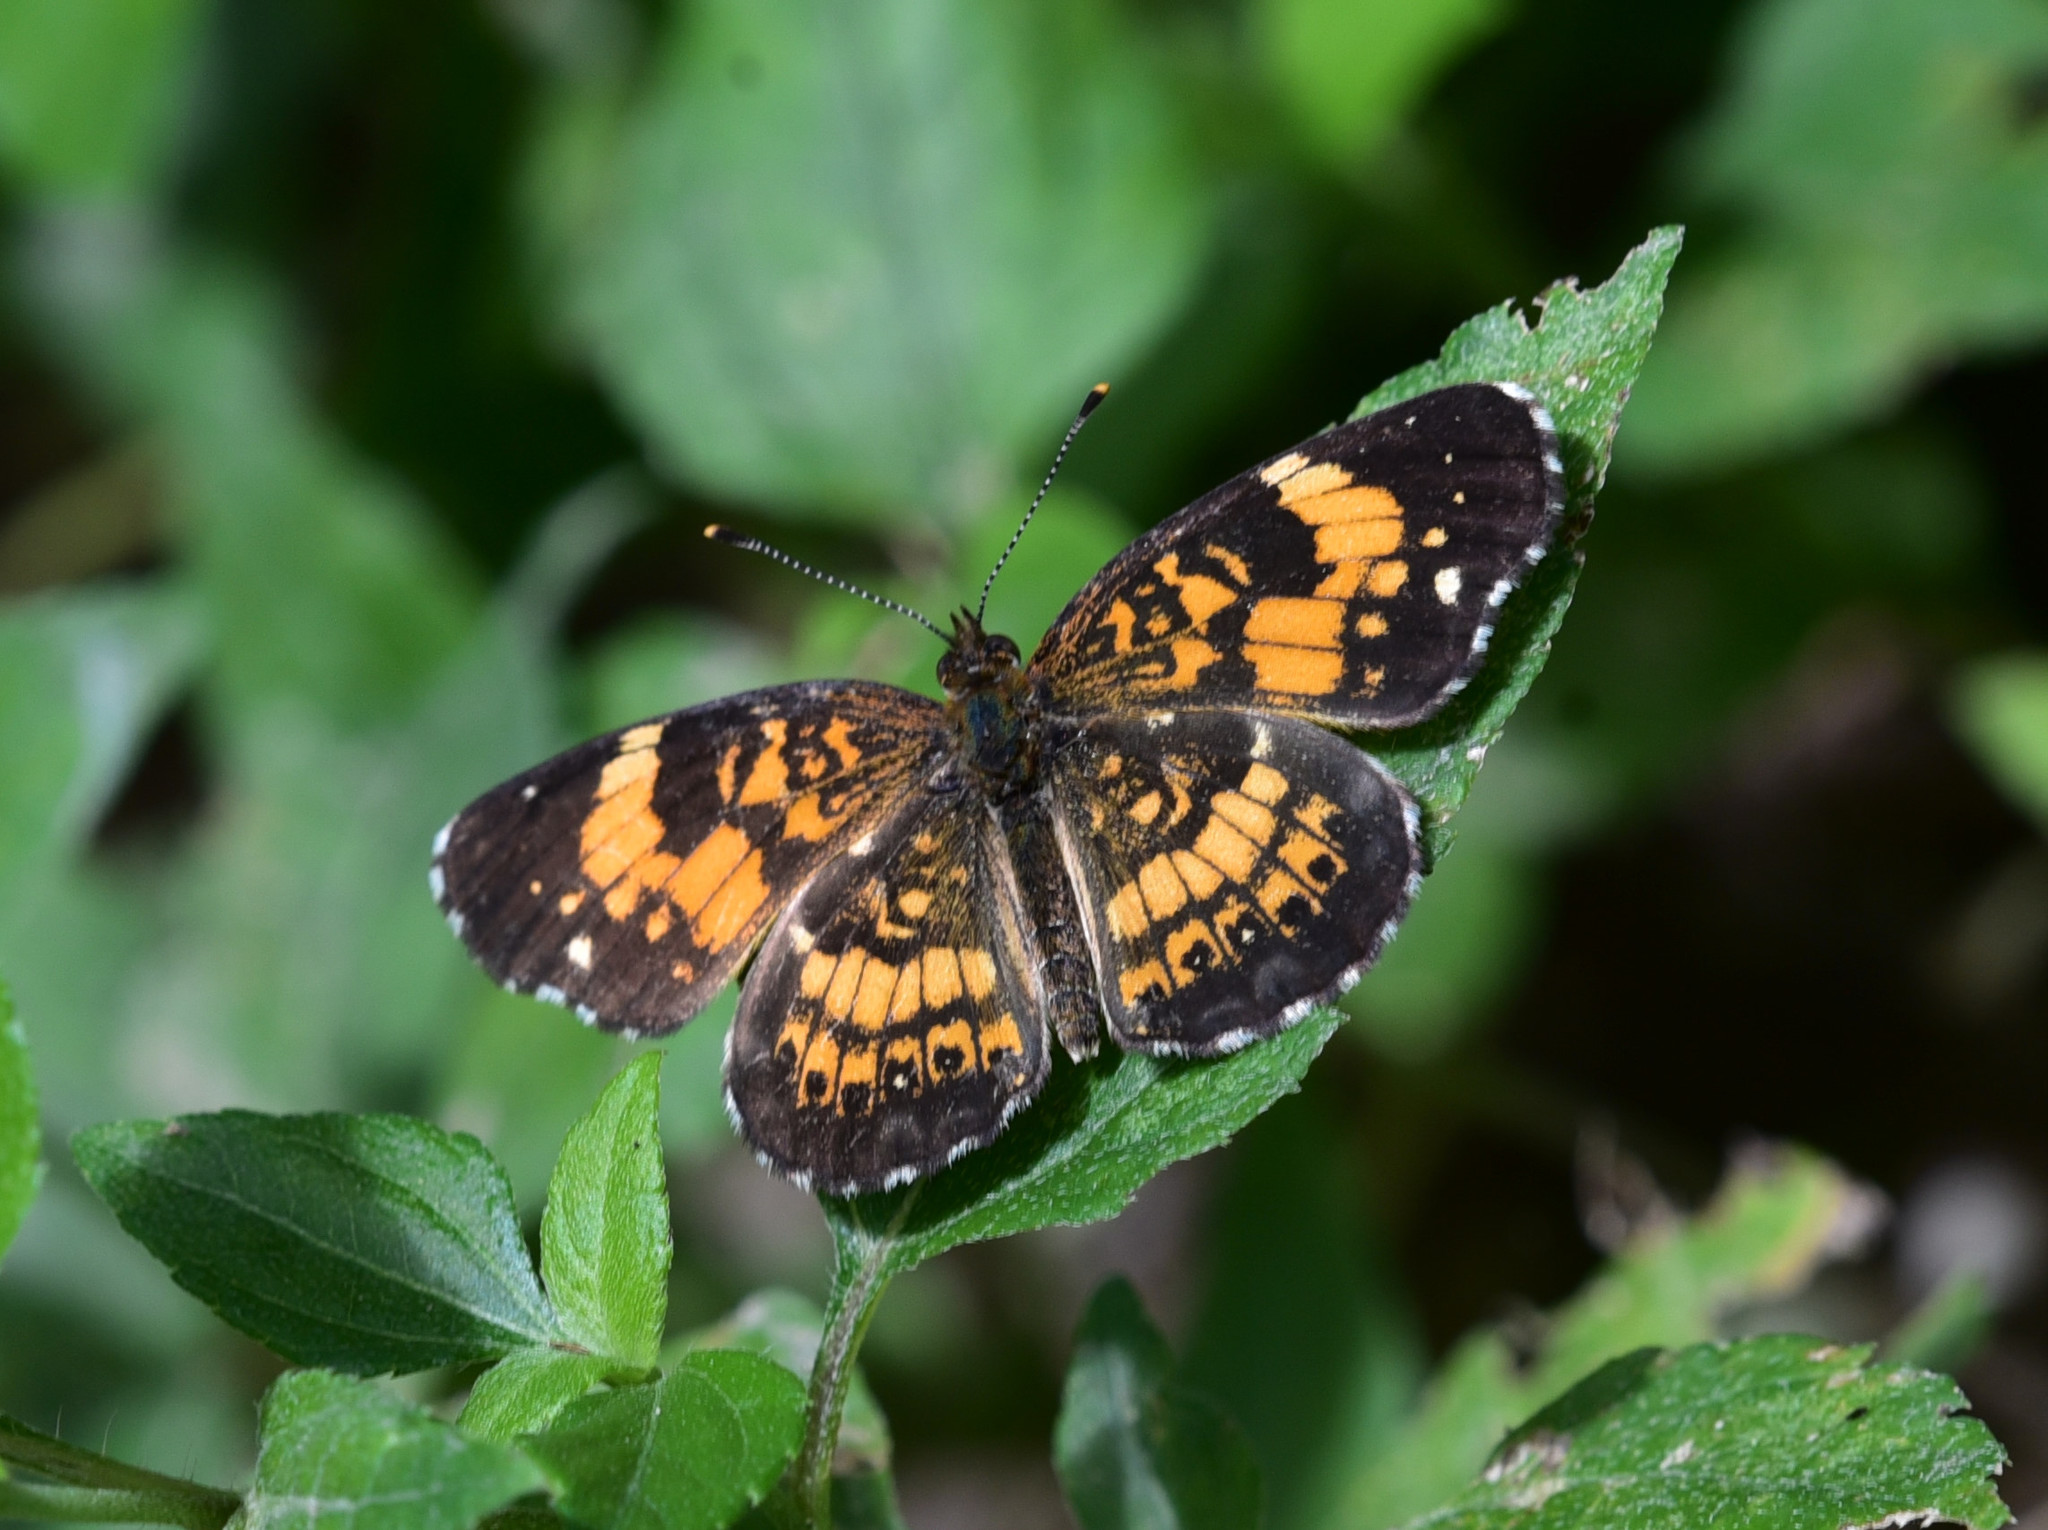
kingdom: Animalia
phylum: Arthropoda
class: Insecta
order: Lepidoptera
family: Nymphalidae
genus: Chlosyne
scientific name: Chlosyne nycteis
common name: Silvery checkerspot
